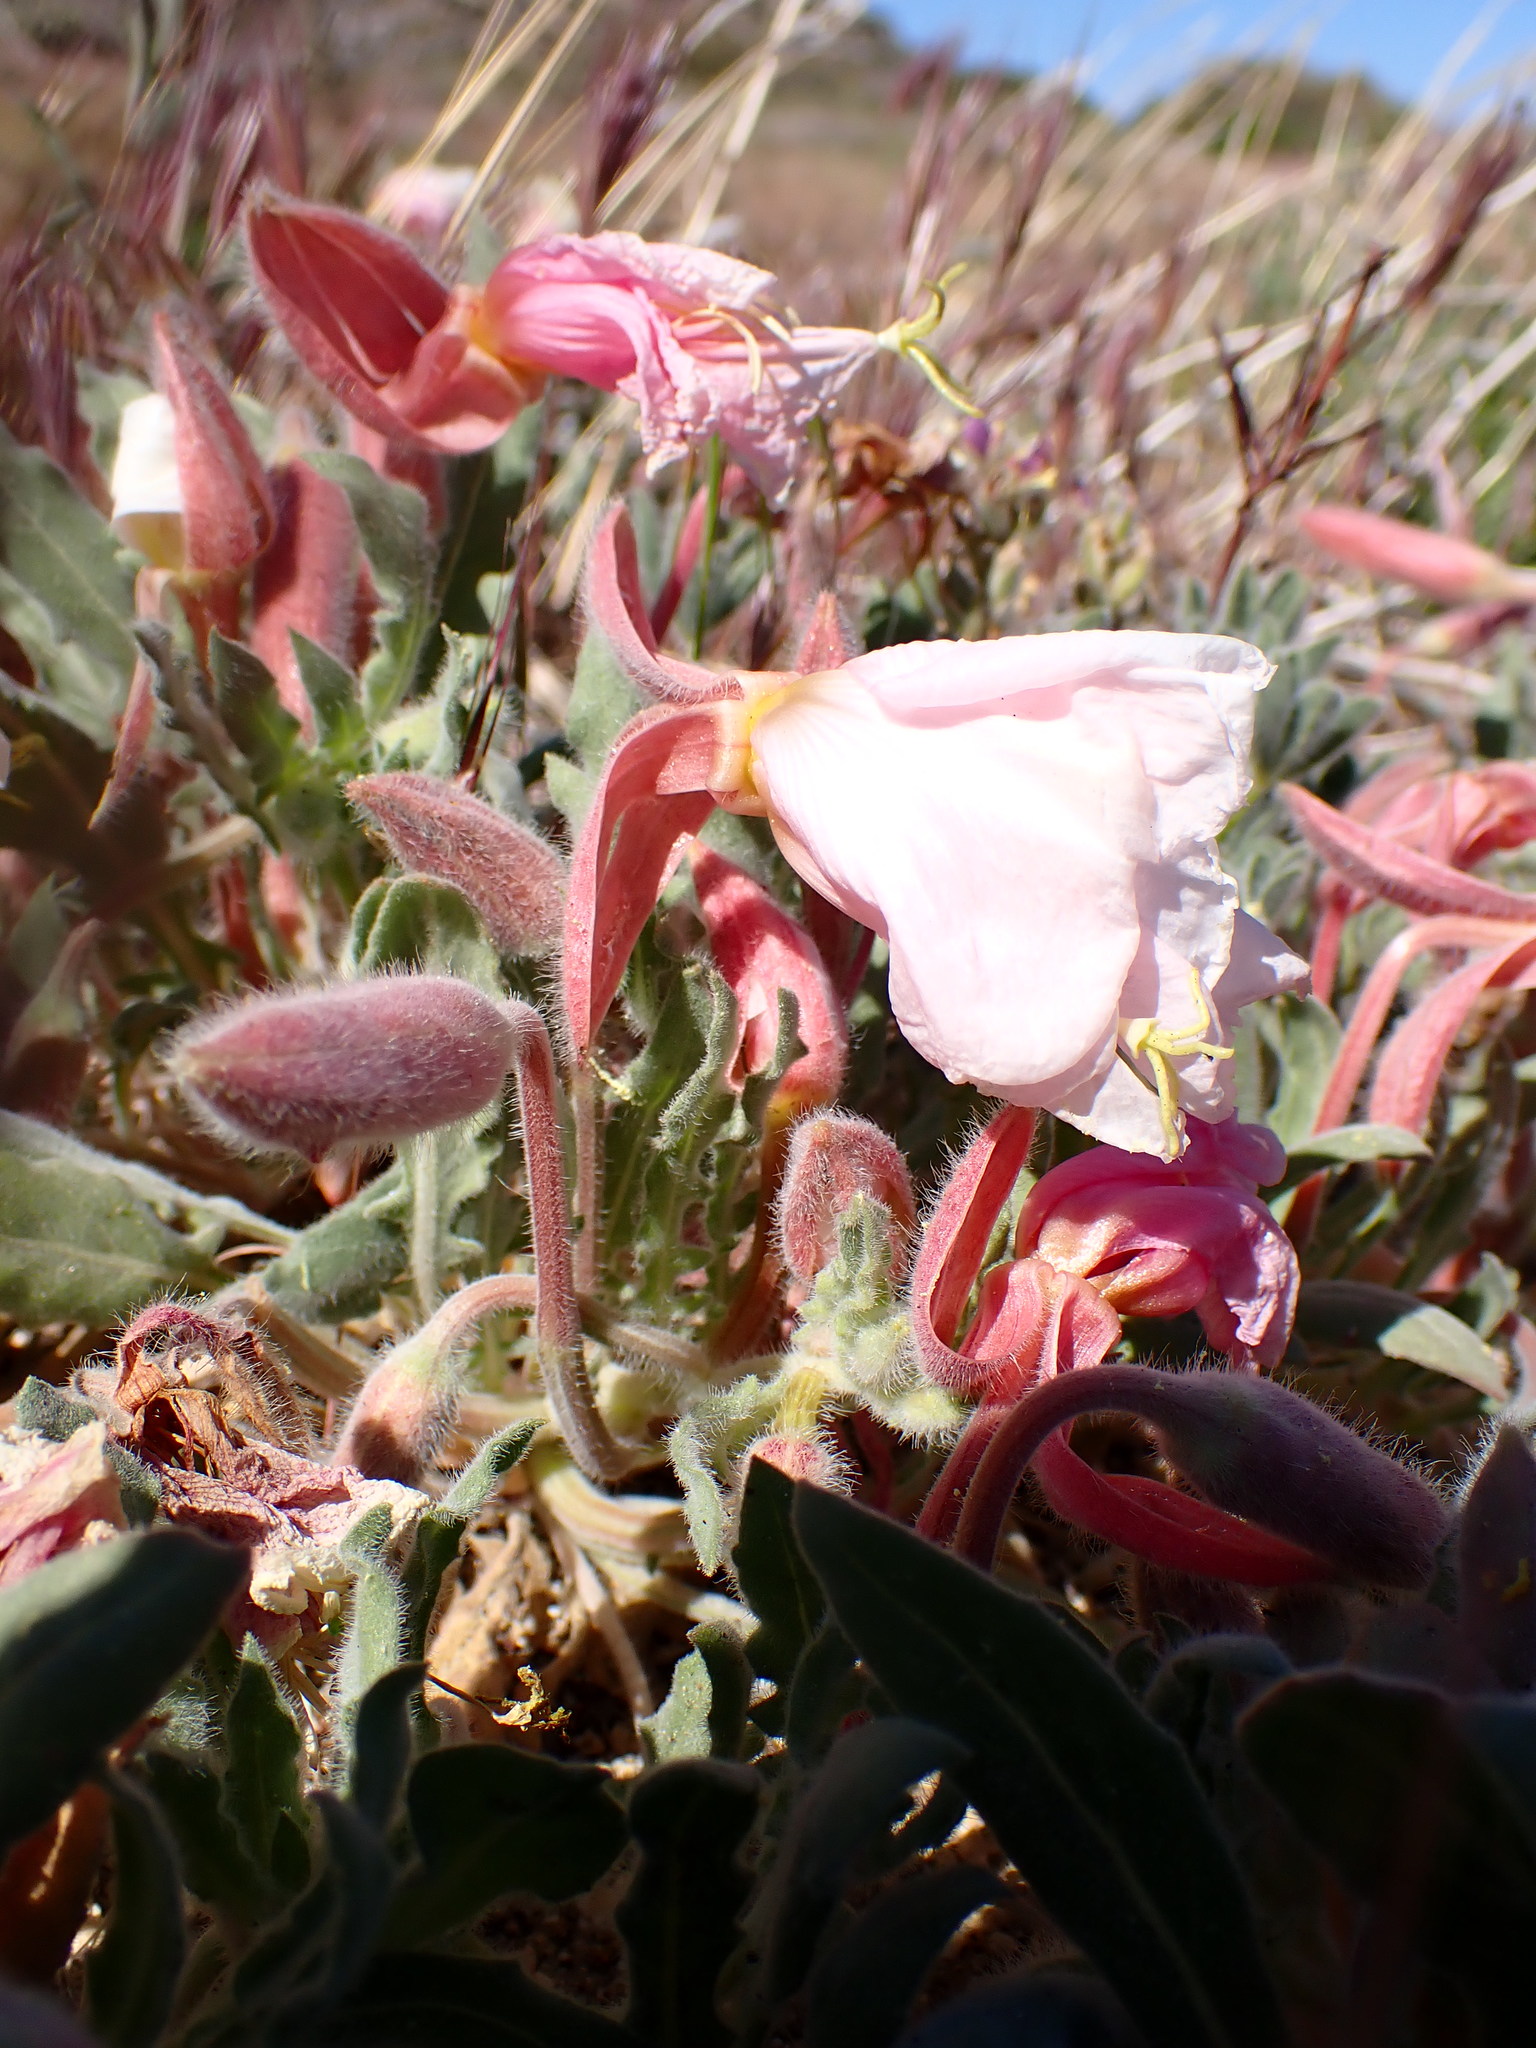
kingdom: Plantae
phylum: Tracheophyta
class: Magnoliopsida
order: Myrtales
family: Onagraceae
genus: Oenothera
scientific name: Oenothera californica
